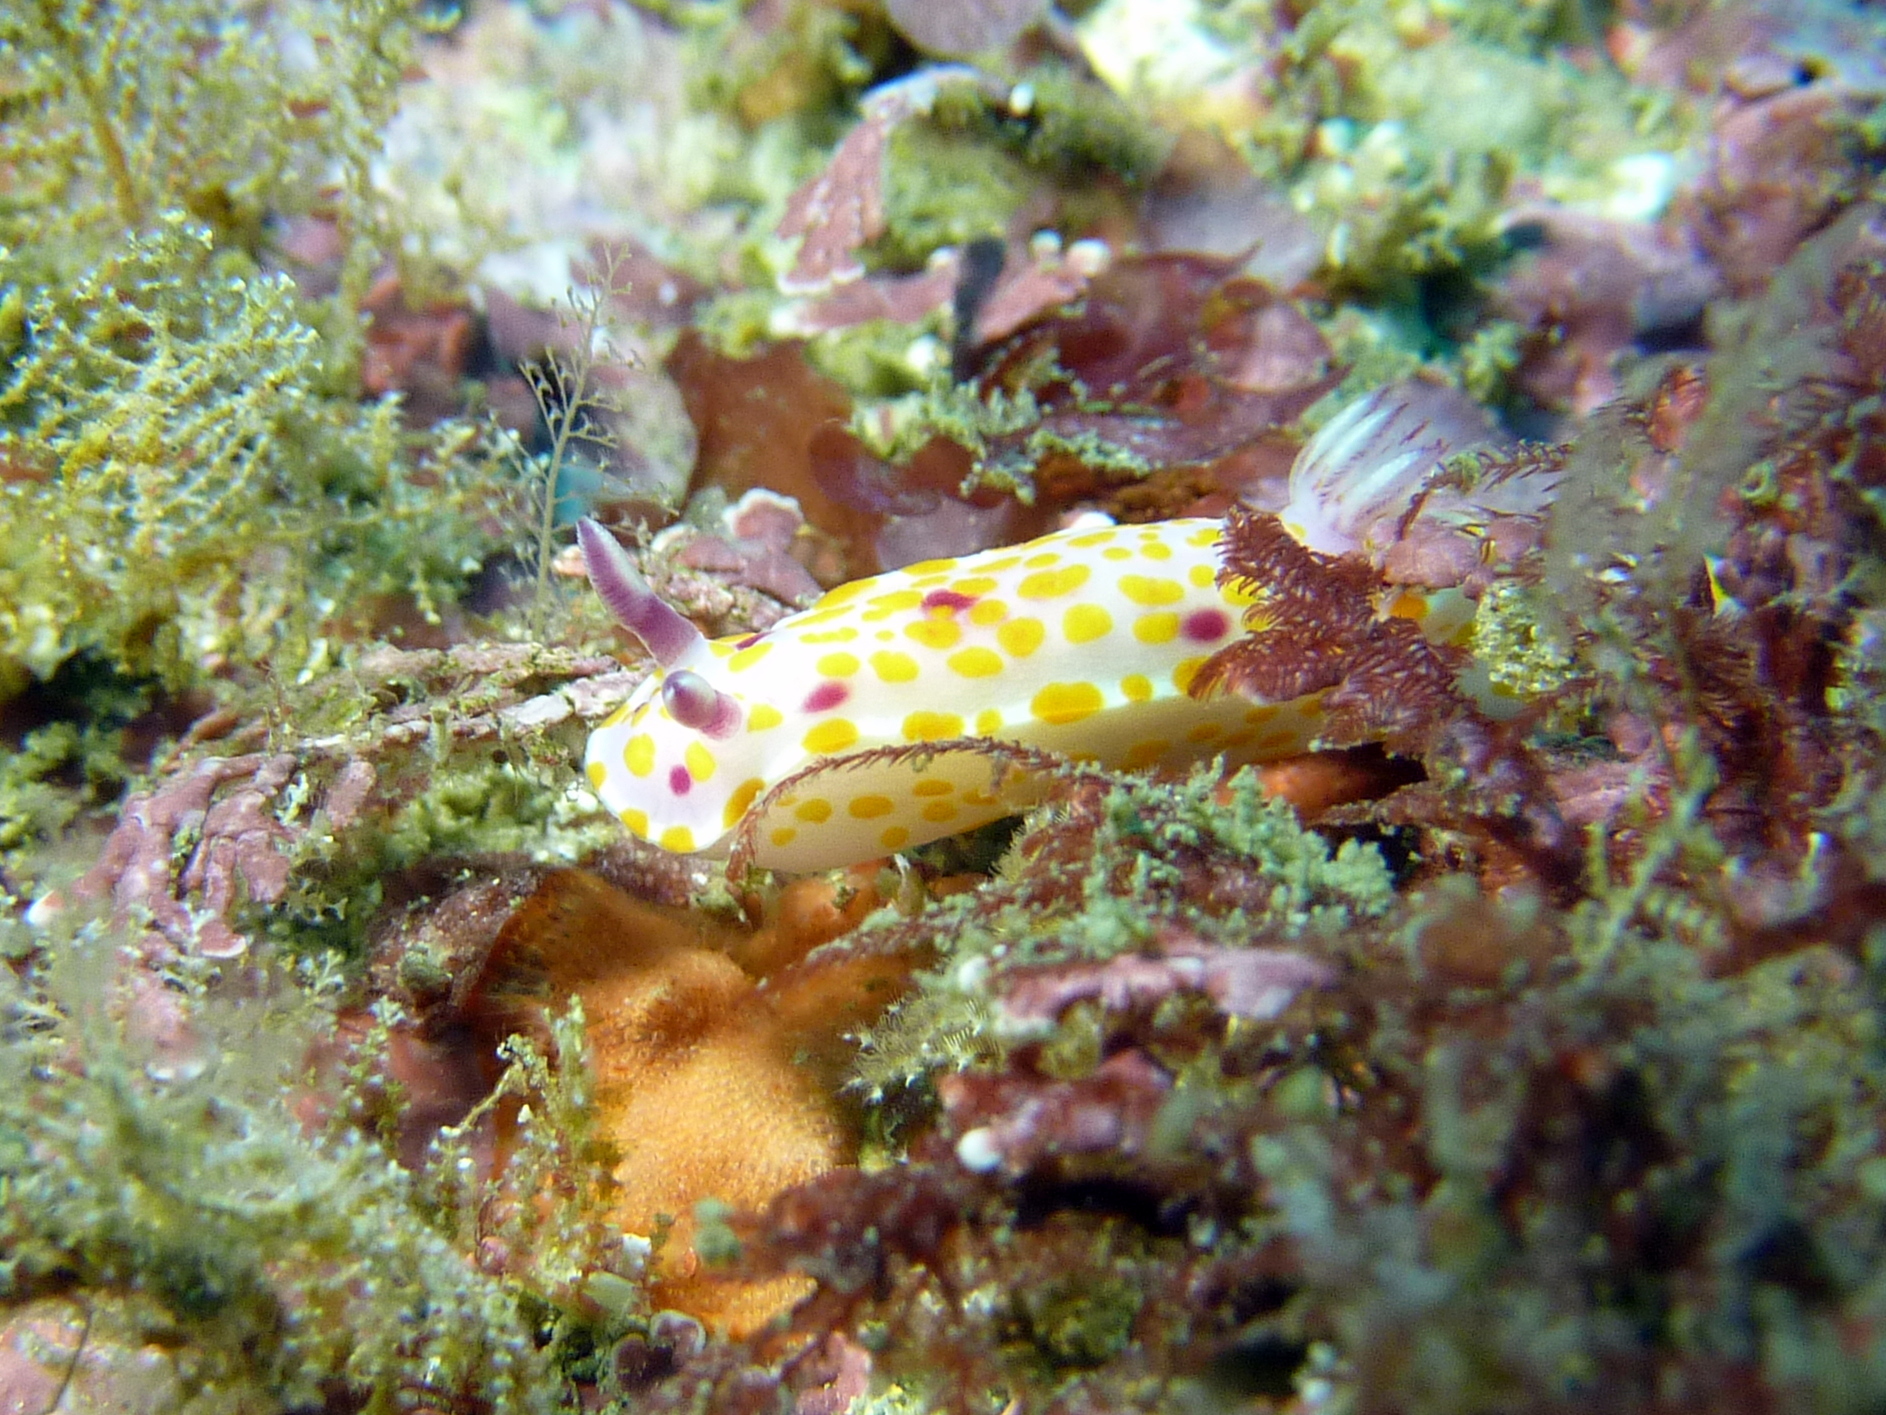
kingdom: Animalia
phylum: Mollusca
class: Gastropoda
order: Nudibranchia
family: Chromodorididae
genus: Ceratosoma
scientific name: Ceratosoma amoenum
